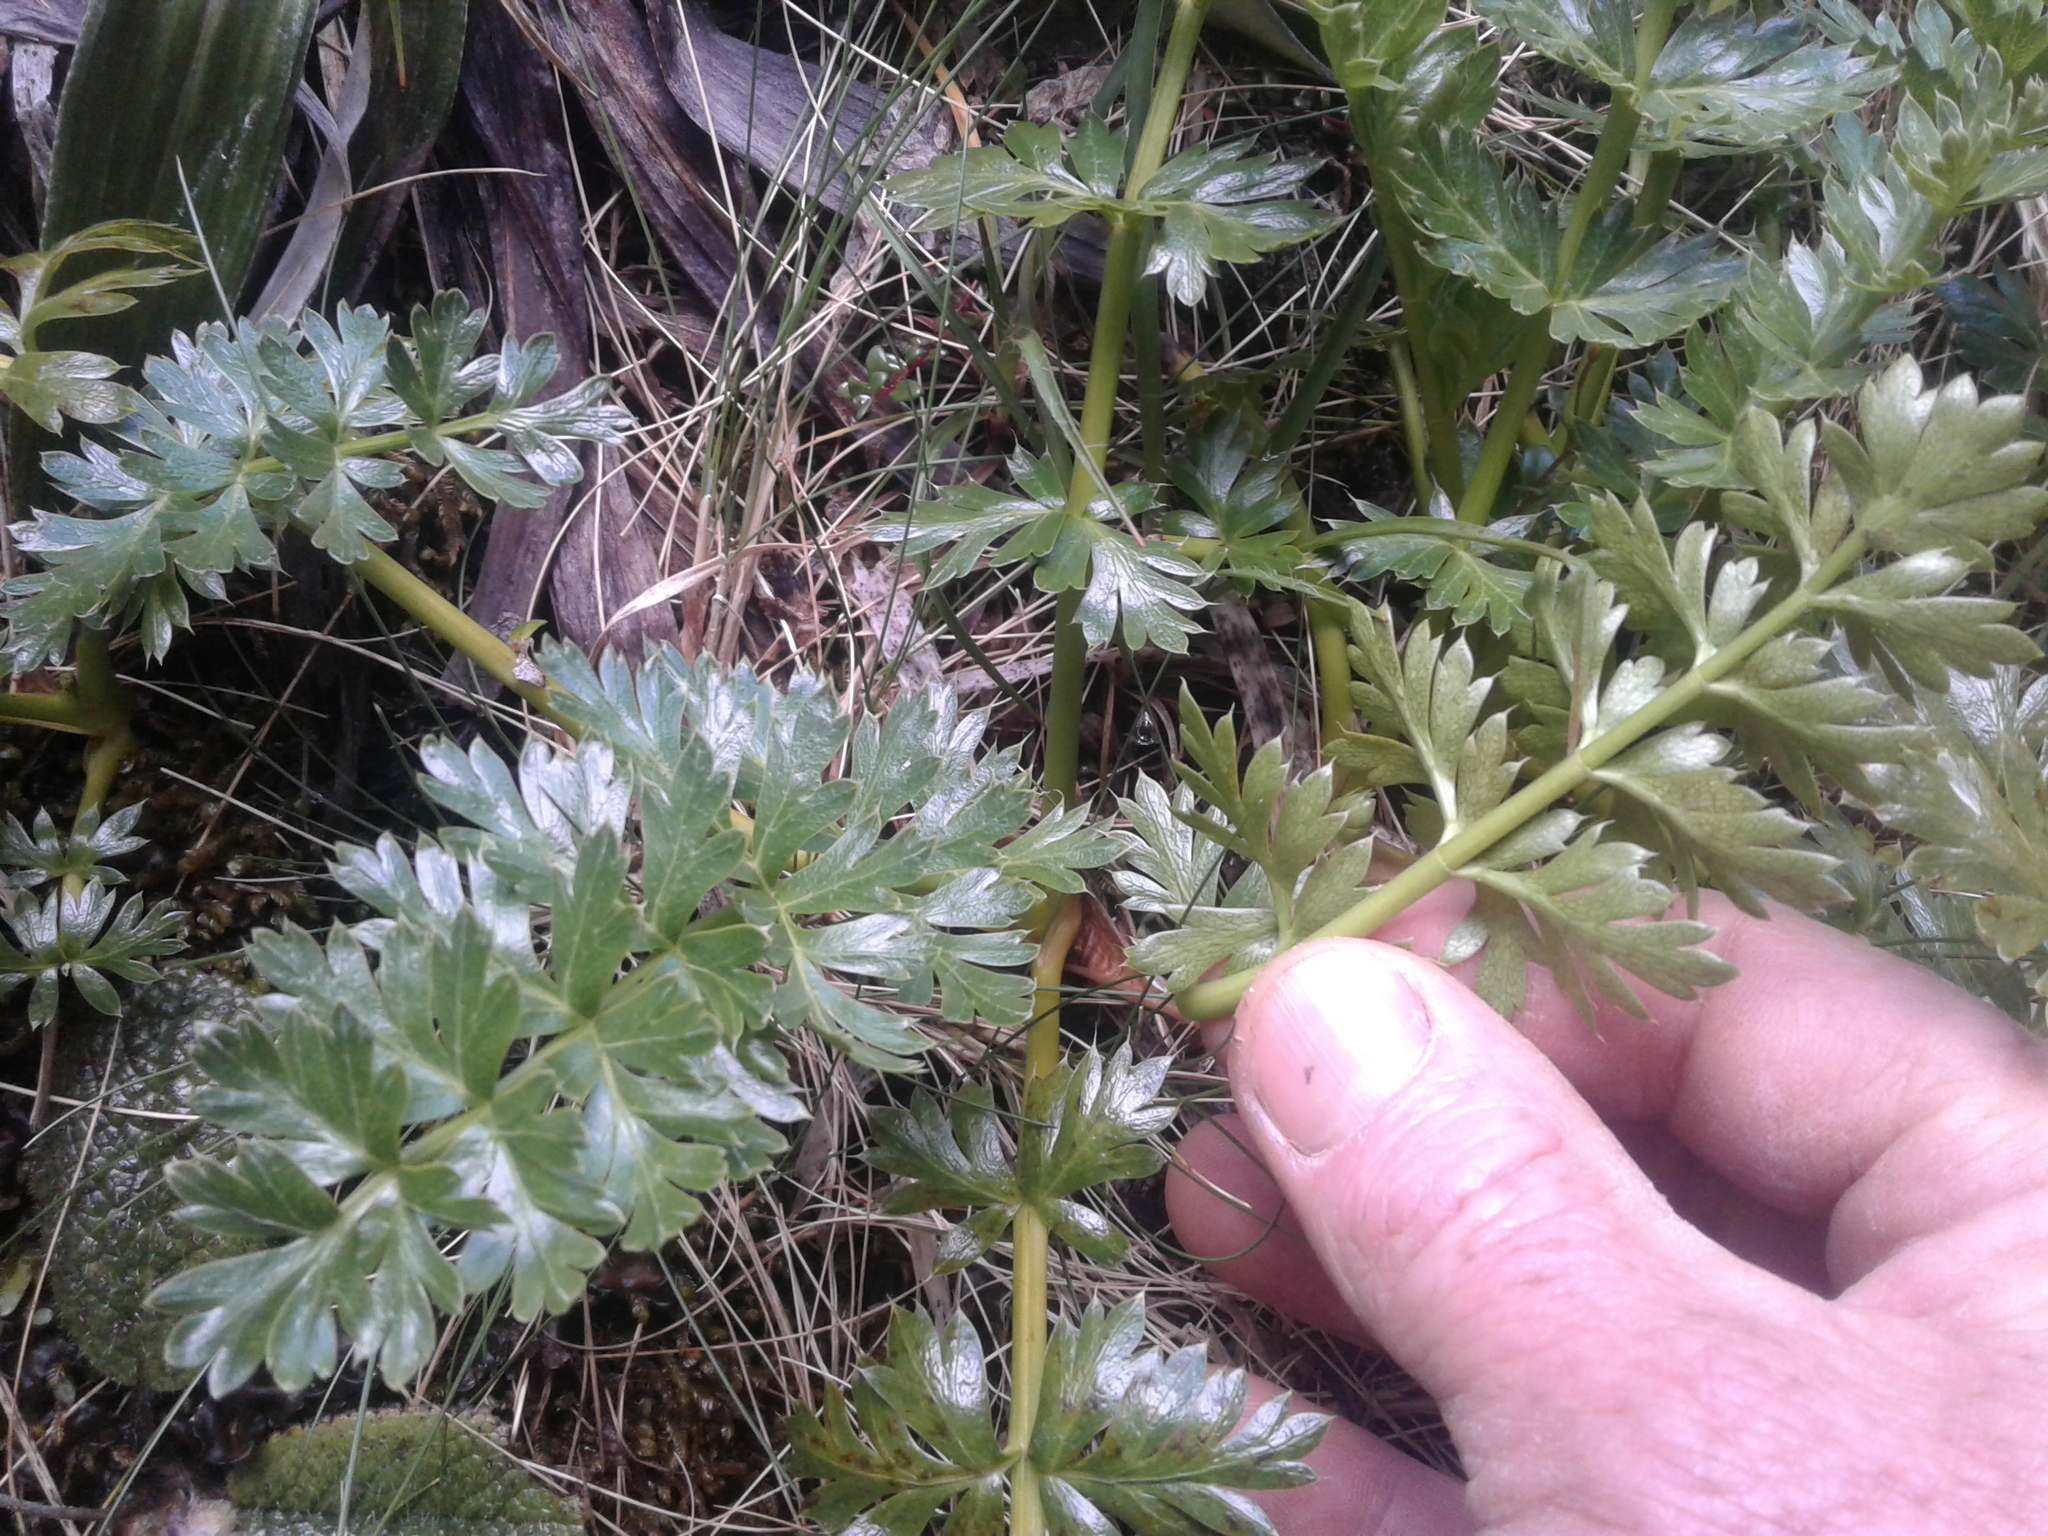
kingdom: Plantae
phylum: Tracheophyta
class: Magnoliopsida
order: Apiales
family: Apiaceae
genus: Anisotome
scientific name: Anisotome pilifera
